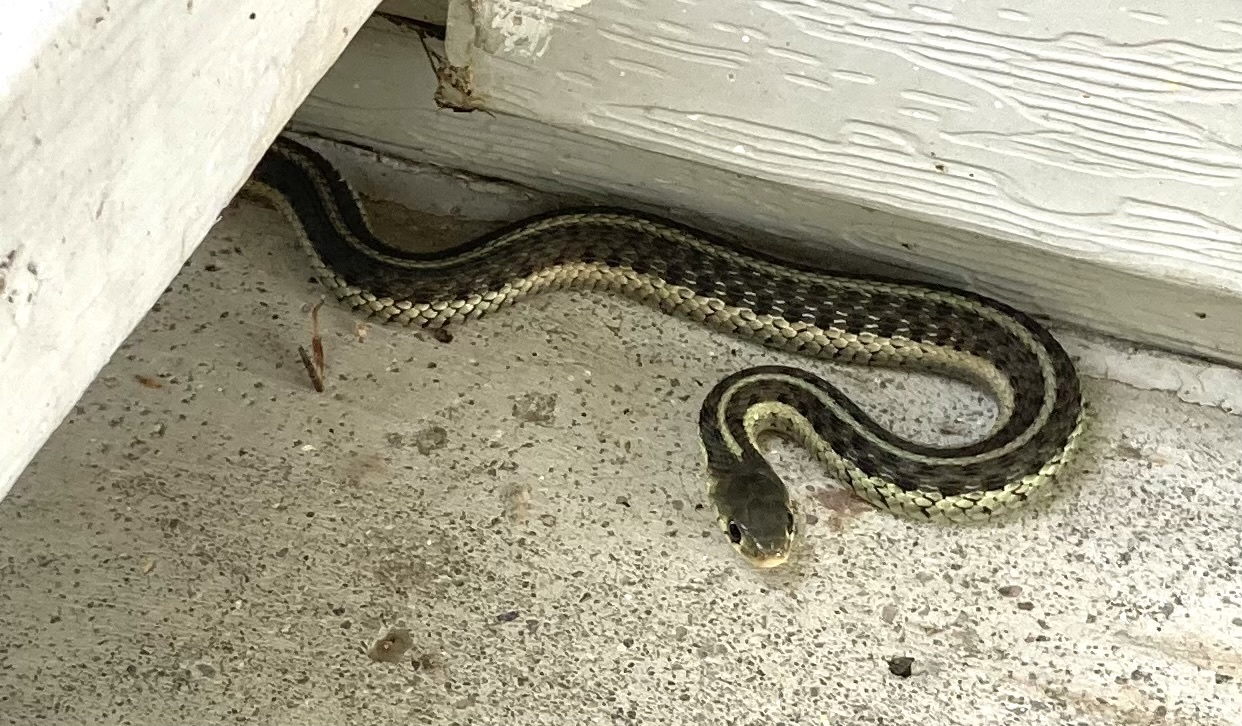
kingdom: Animalia
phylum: Chordata
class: Squamata
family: Colubridae
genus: Thamnophis
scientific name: Thamnophis sirtalis
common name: Common garter snake
